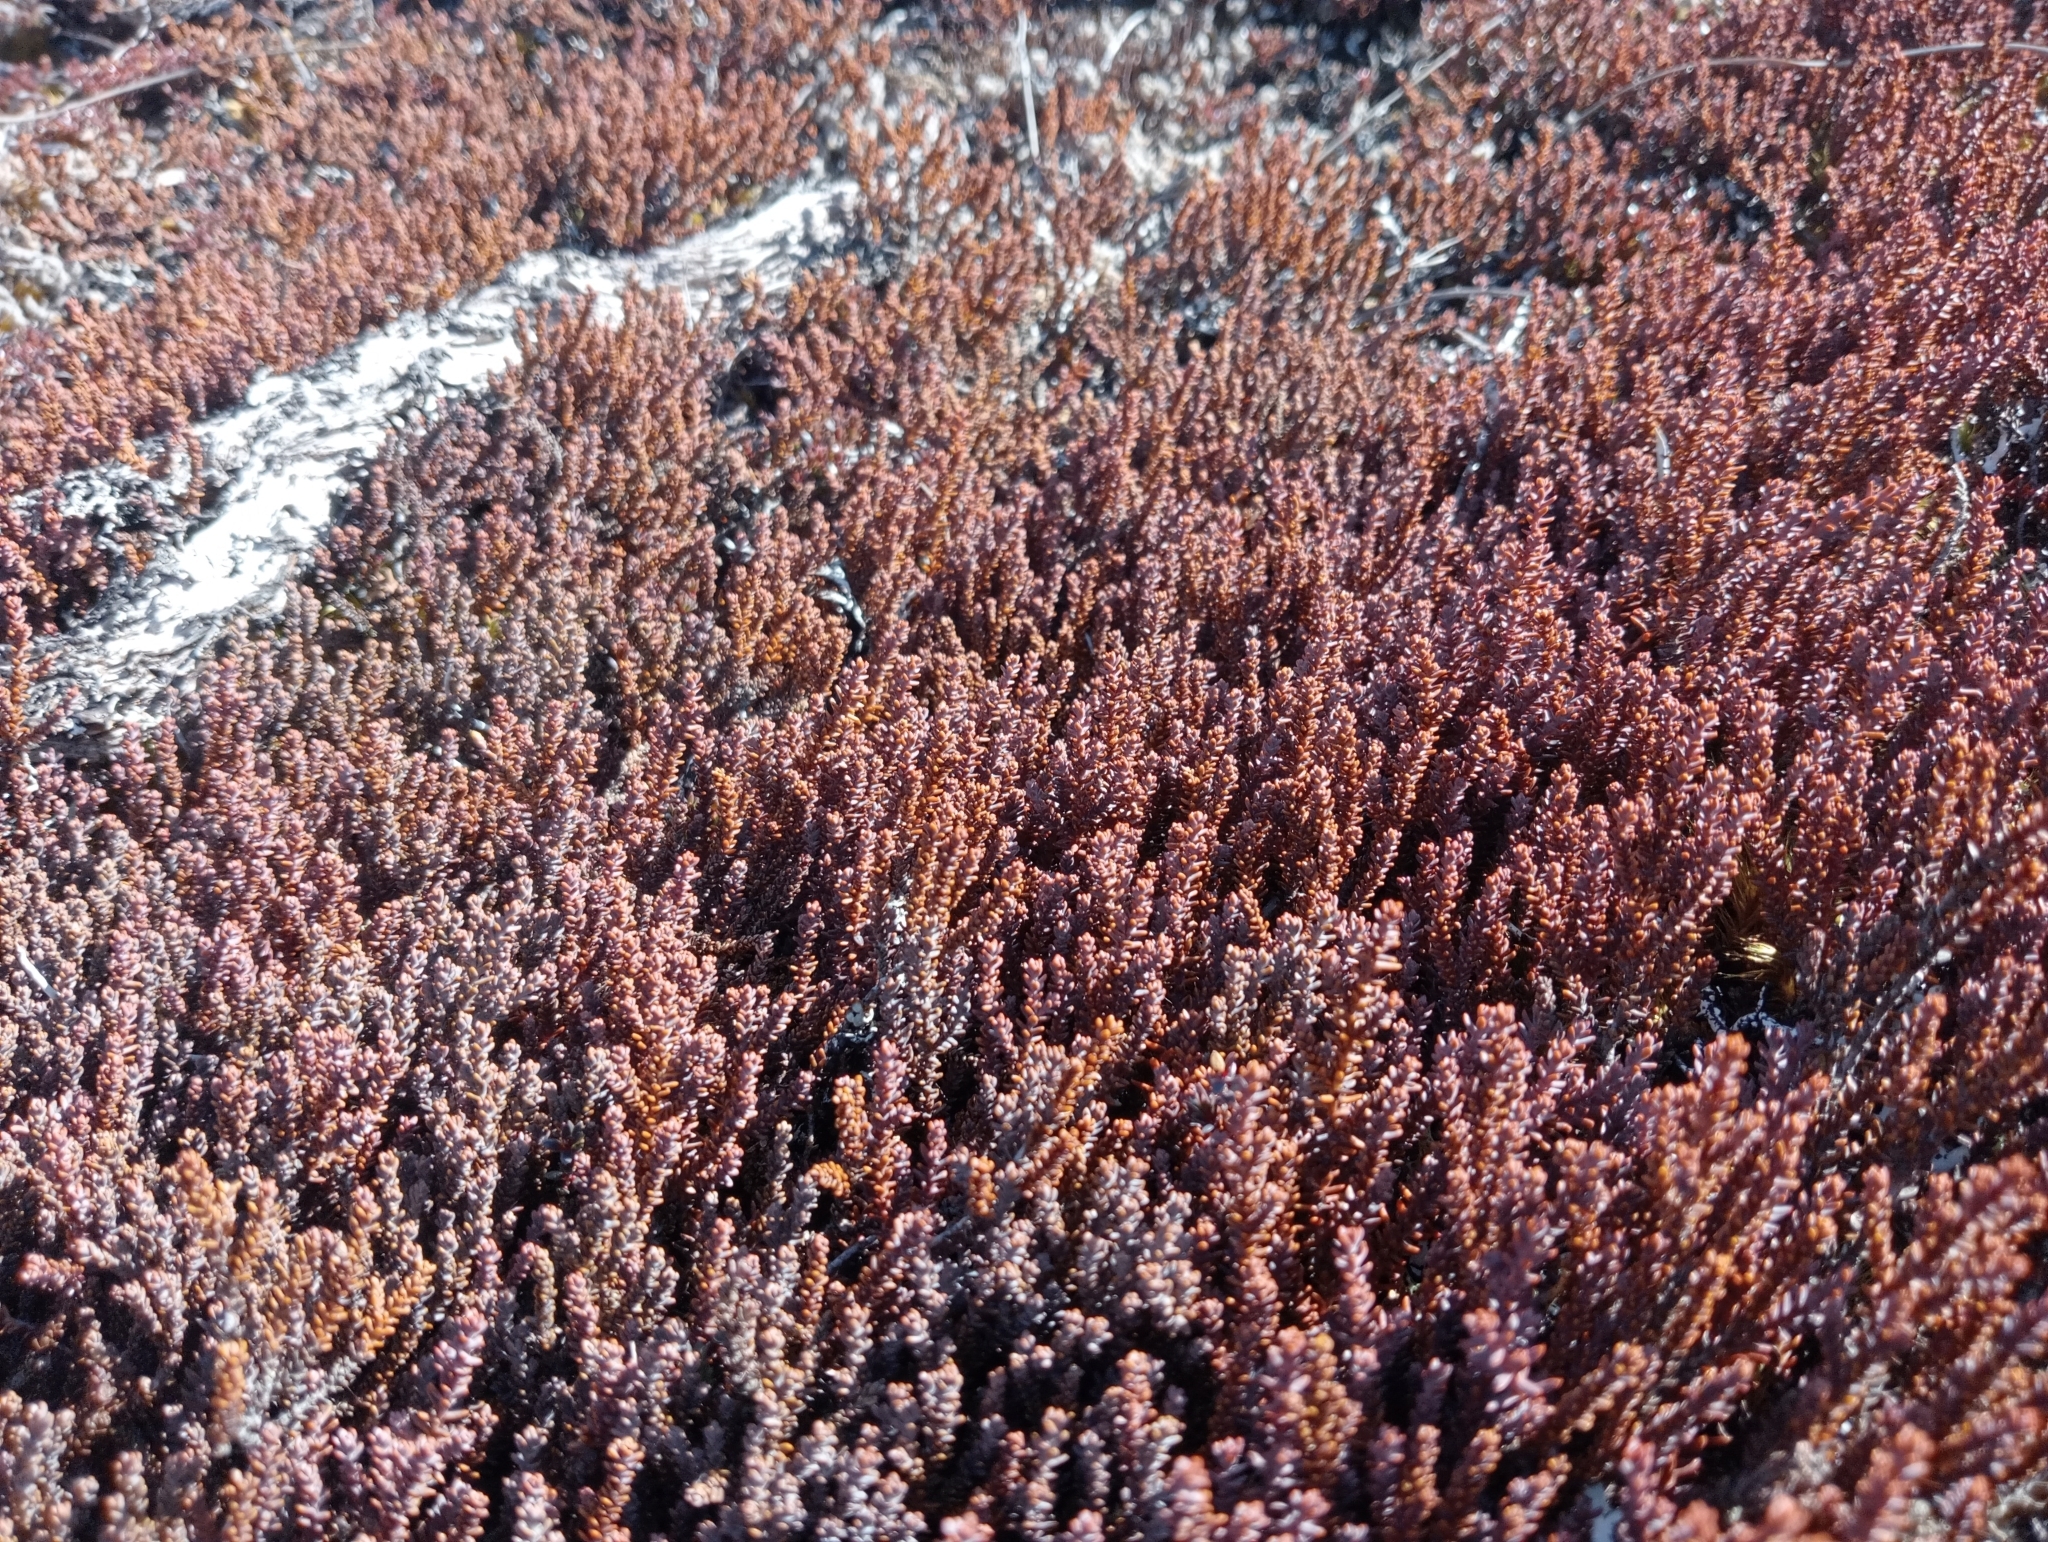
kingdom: Plantae
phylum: Tracheophyta
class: Pinopsida
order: Pinales
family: Podocarpaceae
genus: Lepidothamnus
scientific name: Lepidothamnus laxifolius
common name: Pygmy pine
